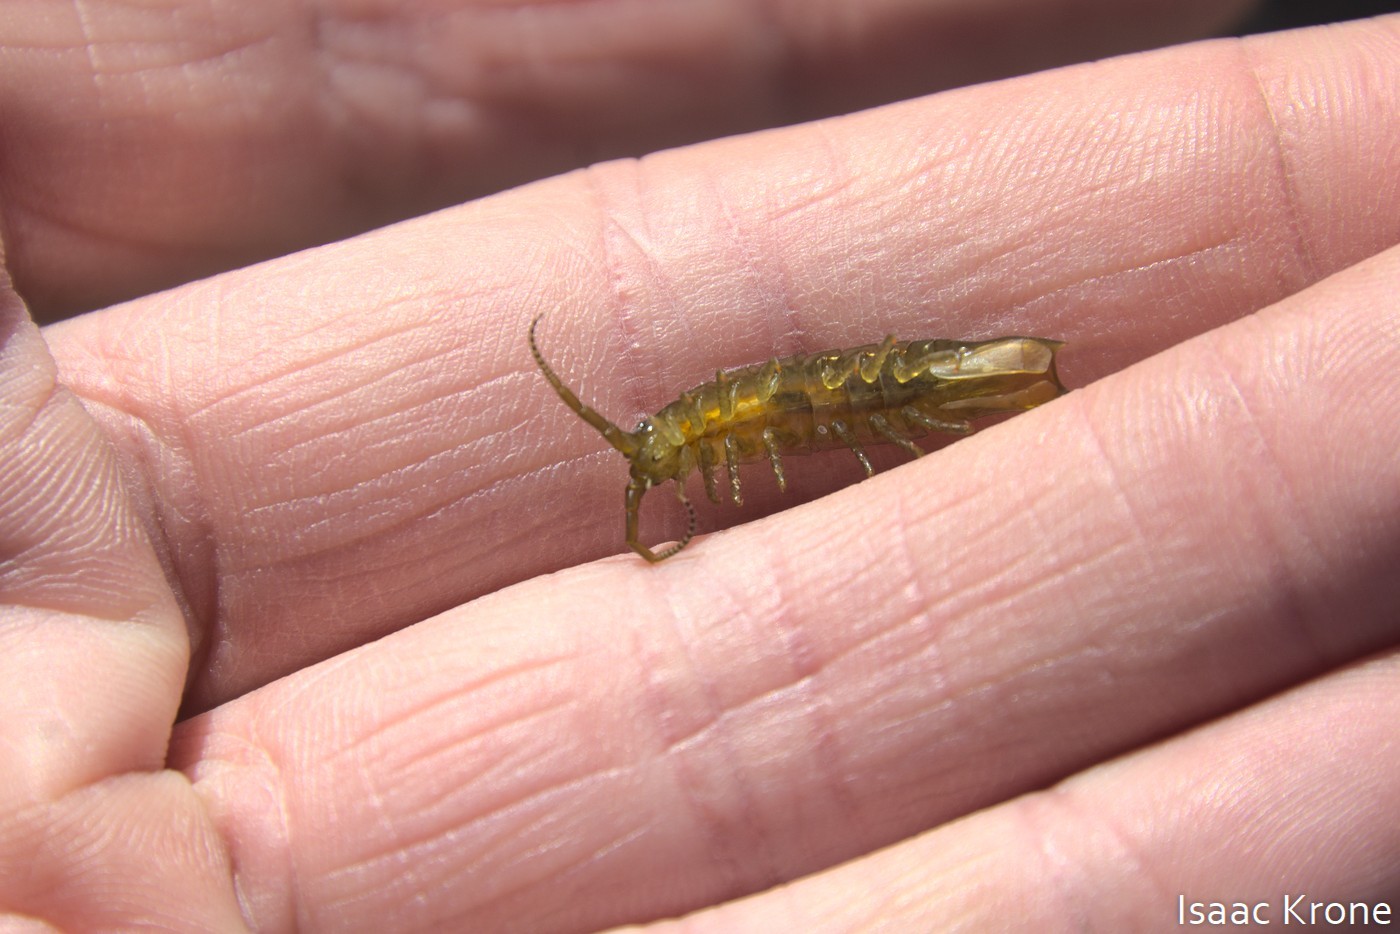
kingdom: Animalia
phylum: Arthropoda
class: Malacostraca
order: Isopoda
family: Idoteidae
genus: Pentidotea
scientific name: Pentidotea resecata
